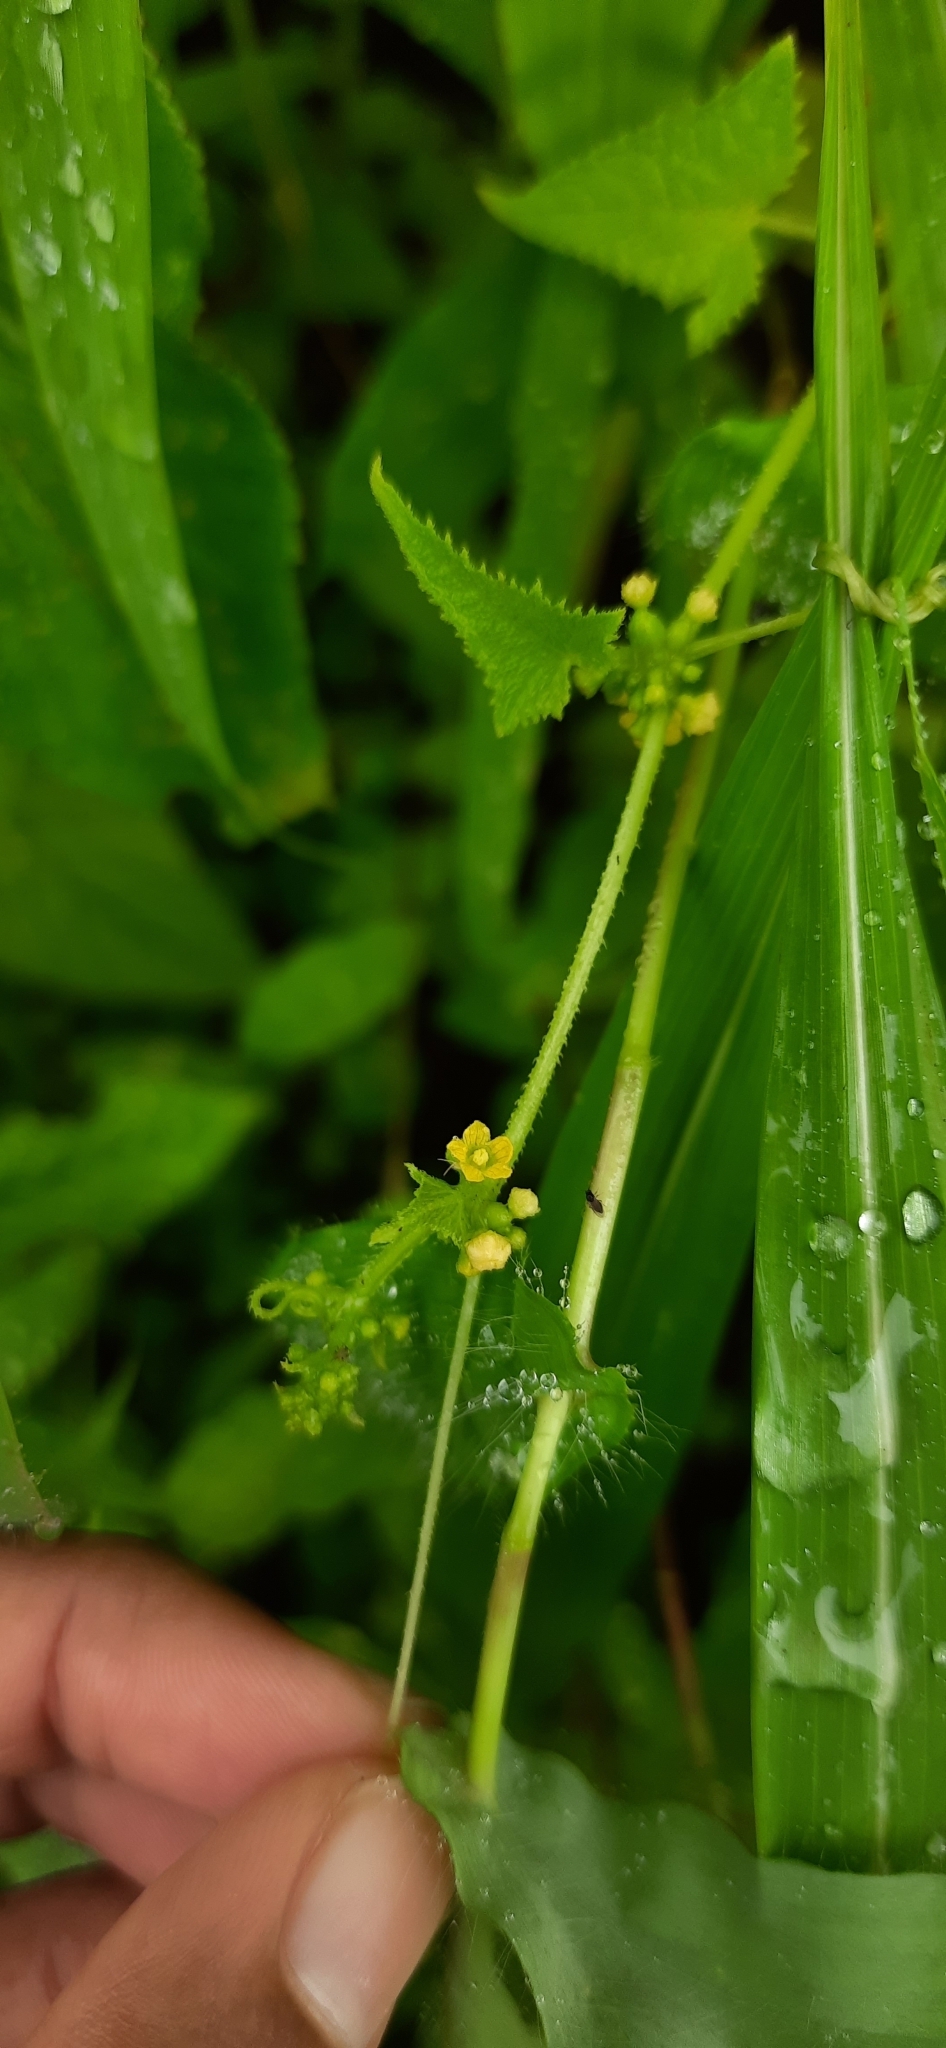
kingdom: Plantae
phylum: Tracheophyta
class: Magnoliopsida
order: Cucurbitales
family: Cucurbitaceae
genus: Cucumis
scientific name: Cucumis maderaspatanus
